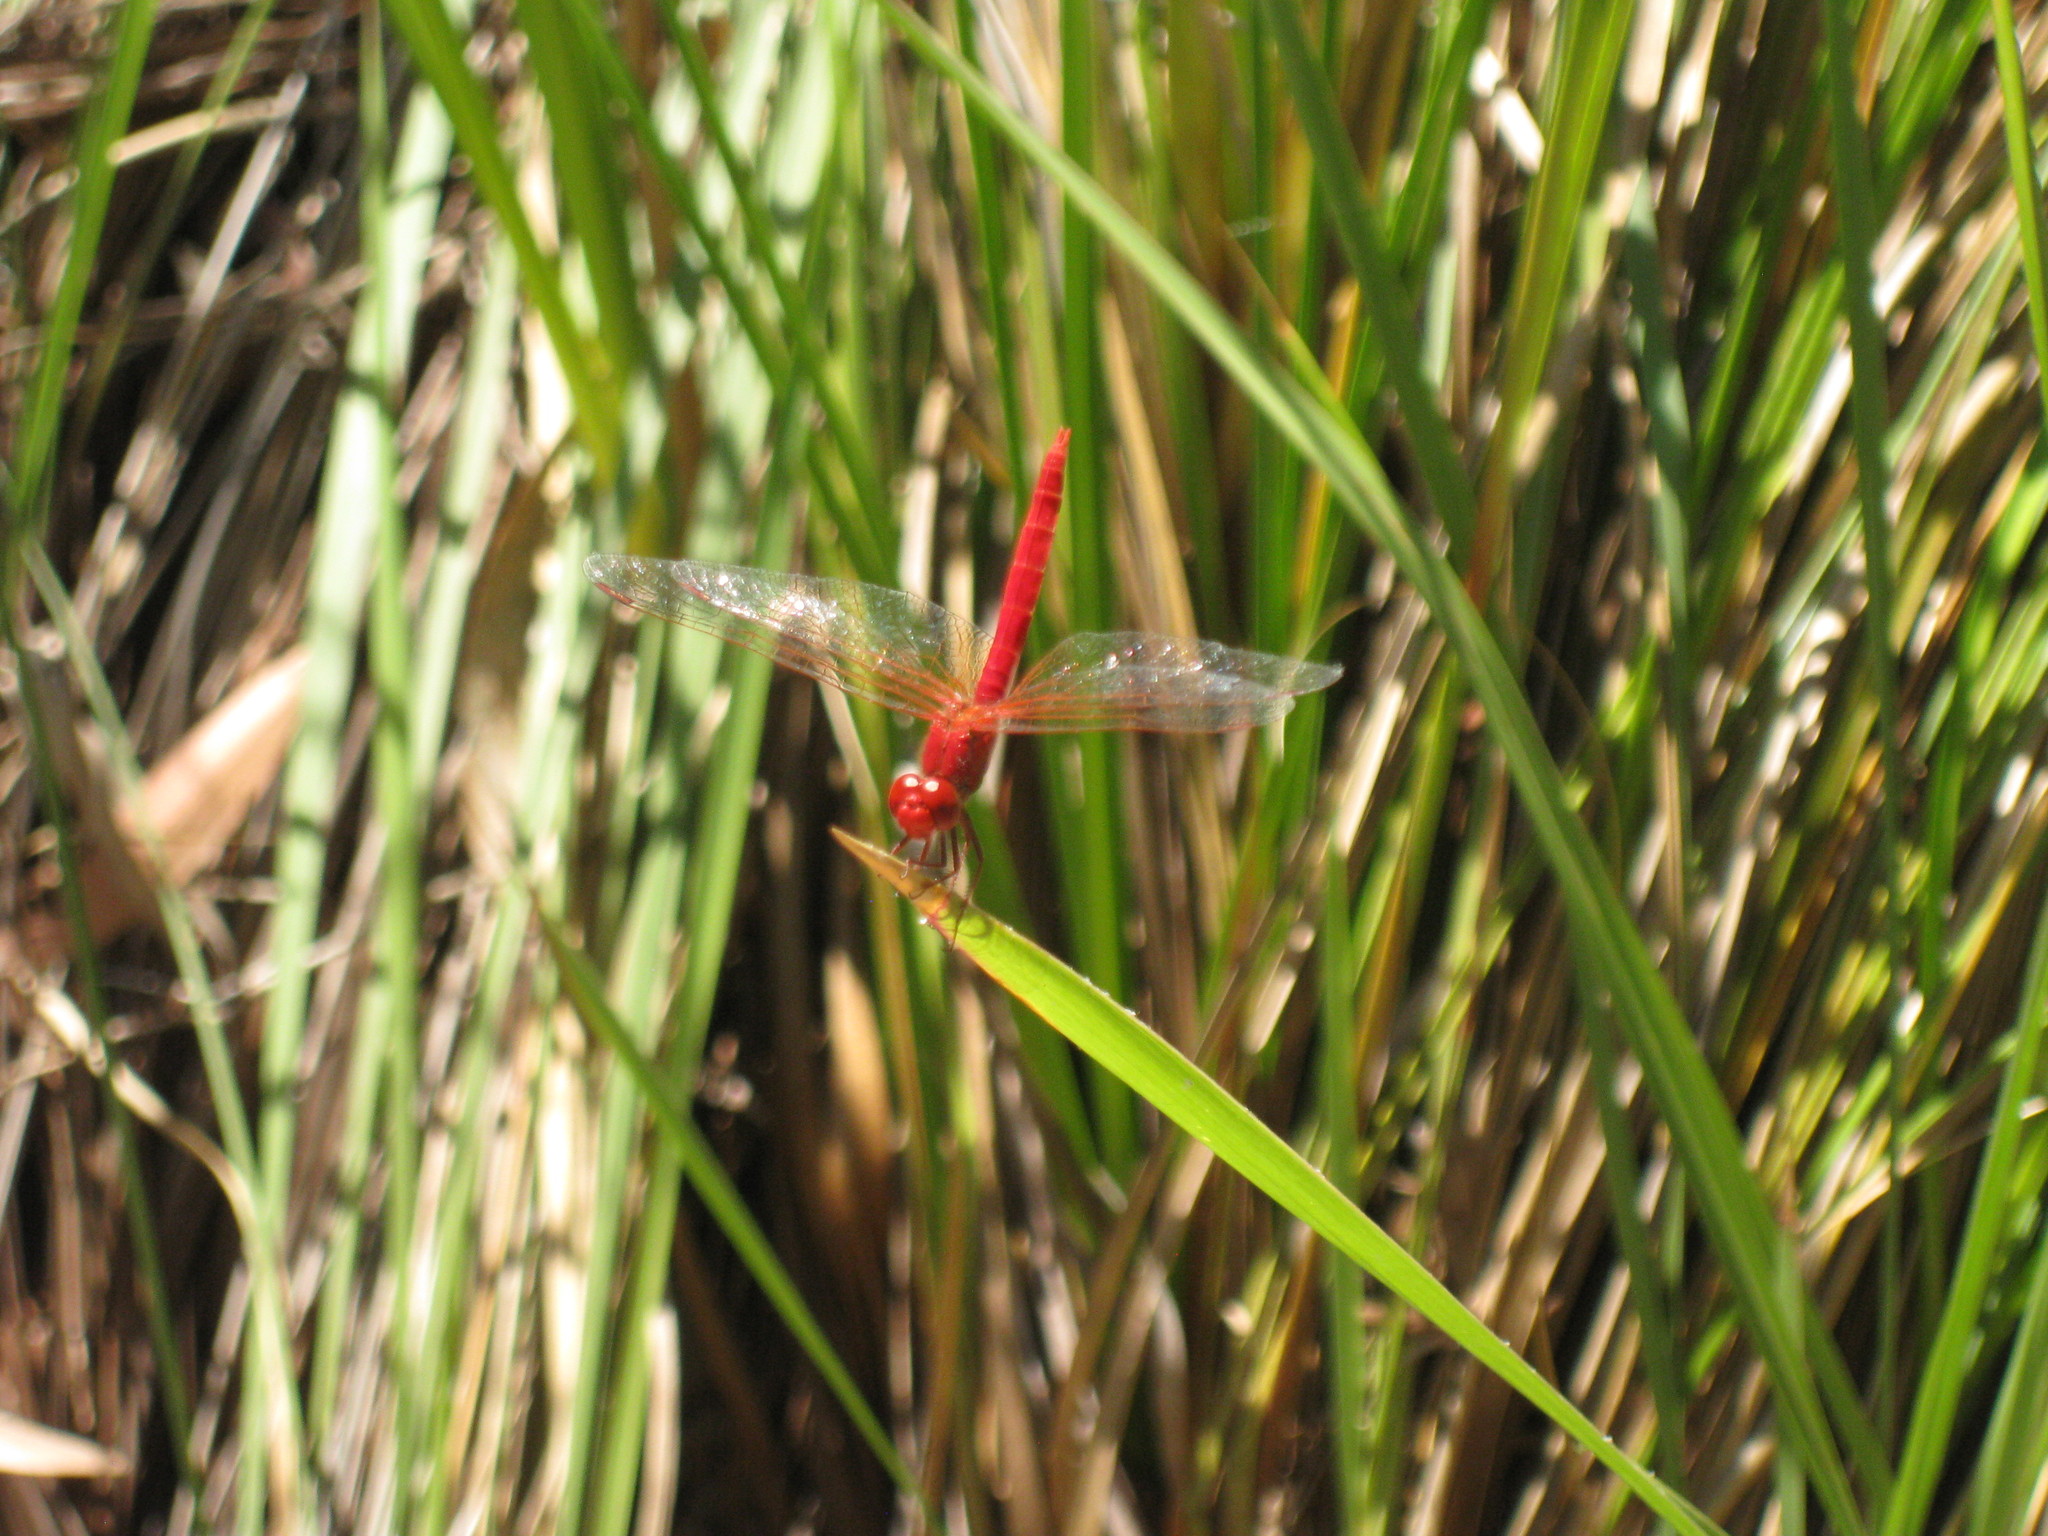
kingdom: Animalia
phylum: Arthropoda
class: Insecta
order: Odonata
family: Libellulidae
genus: Diplacodes
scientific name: Diplacodes haematodes
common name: Scarlet percher
